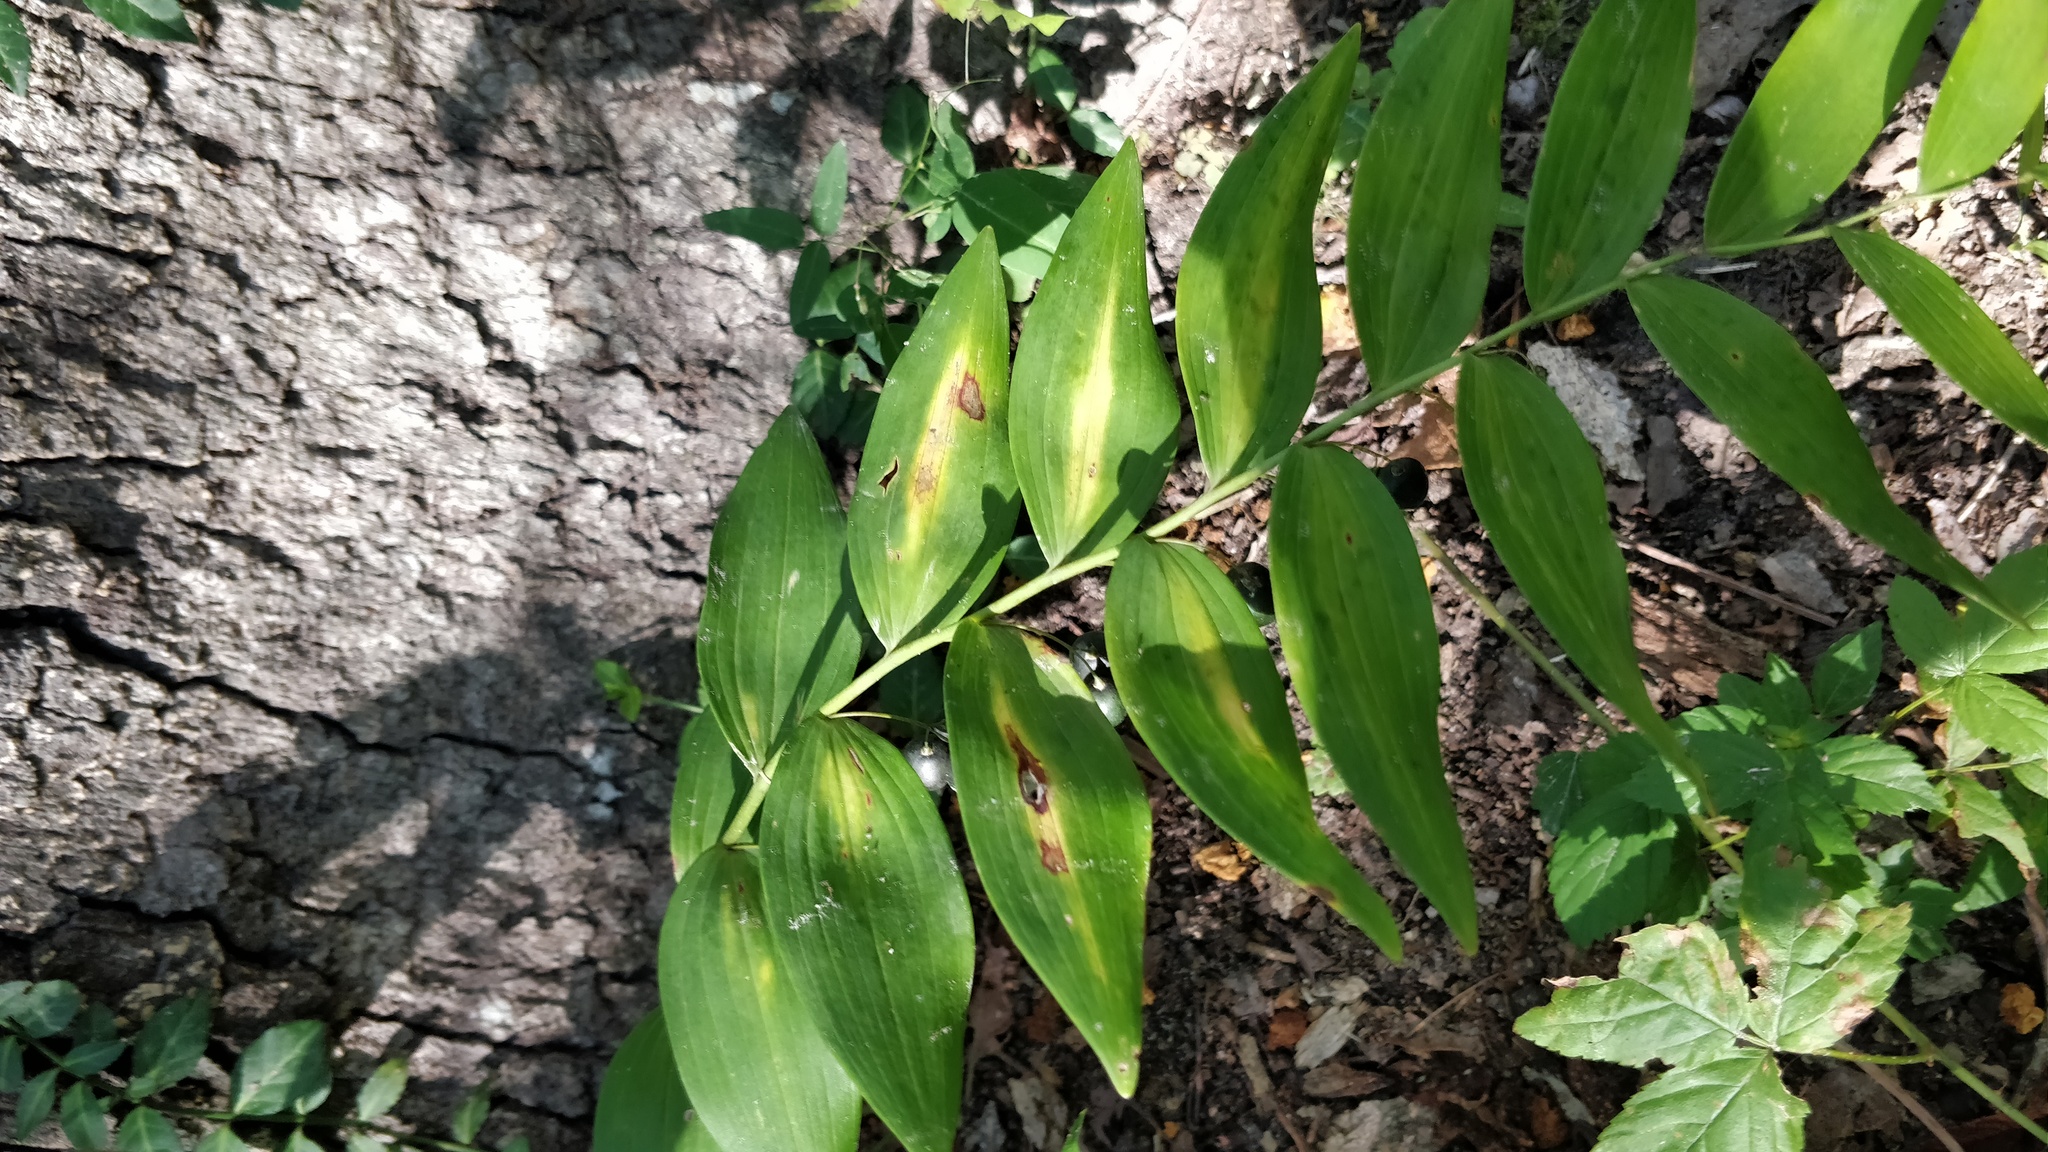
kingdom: Plantae
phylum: Tracheophyta
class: Liliopsida
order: Asparagales
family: Asparagaceae
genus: Polygonatum
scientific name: Polygonatum biflorum
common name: American solomon's-seal
